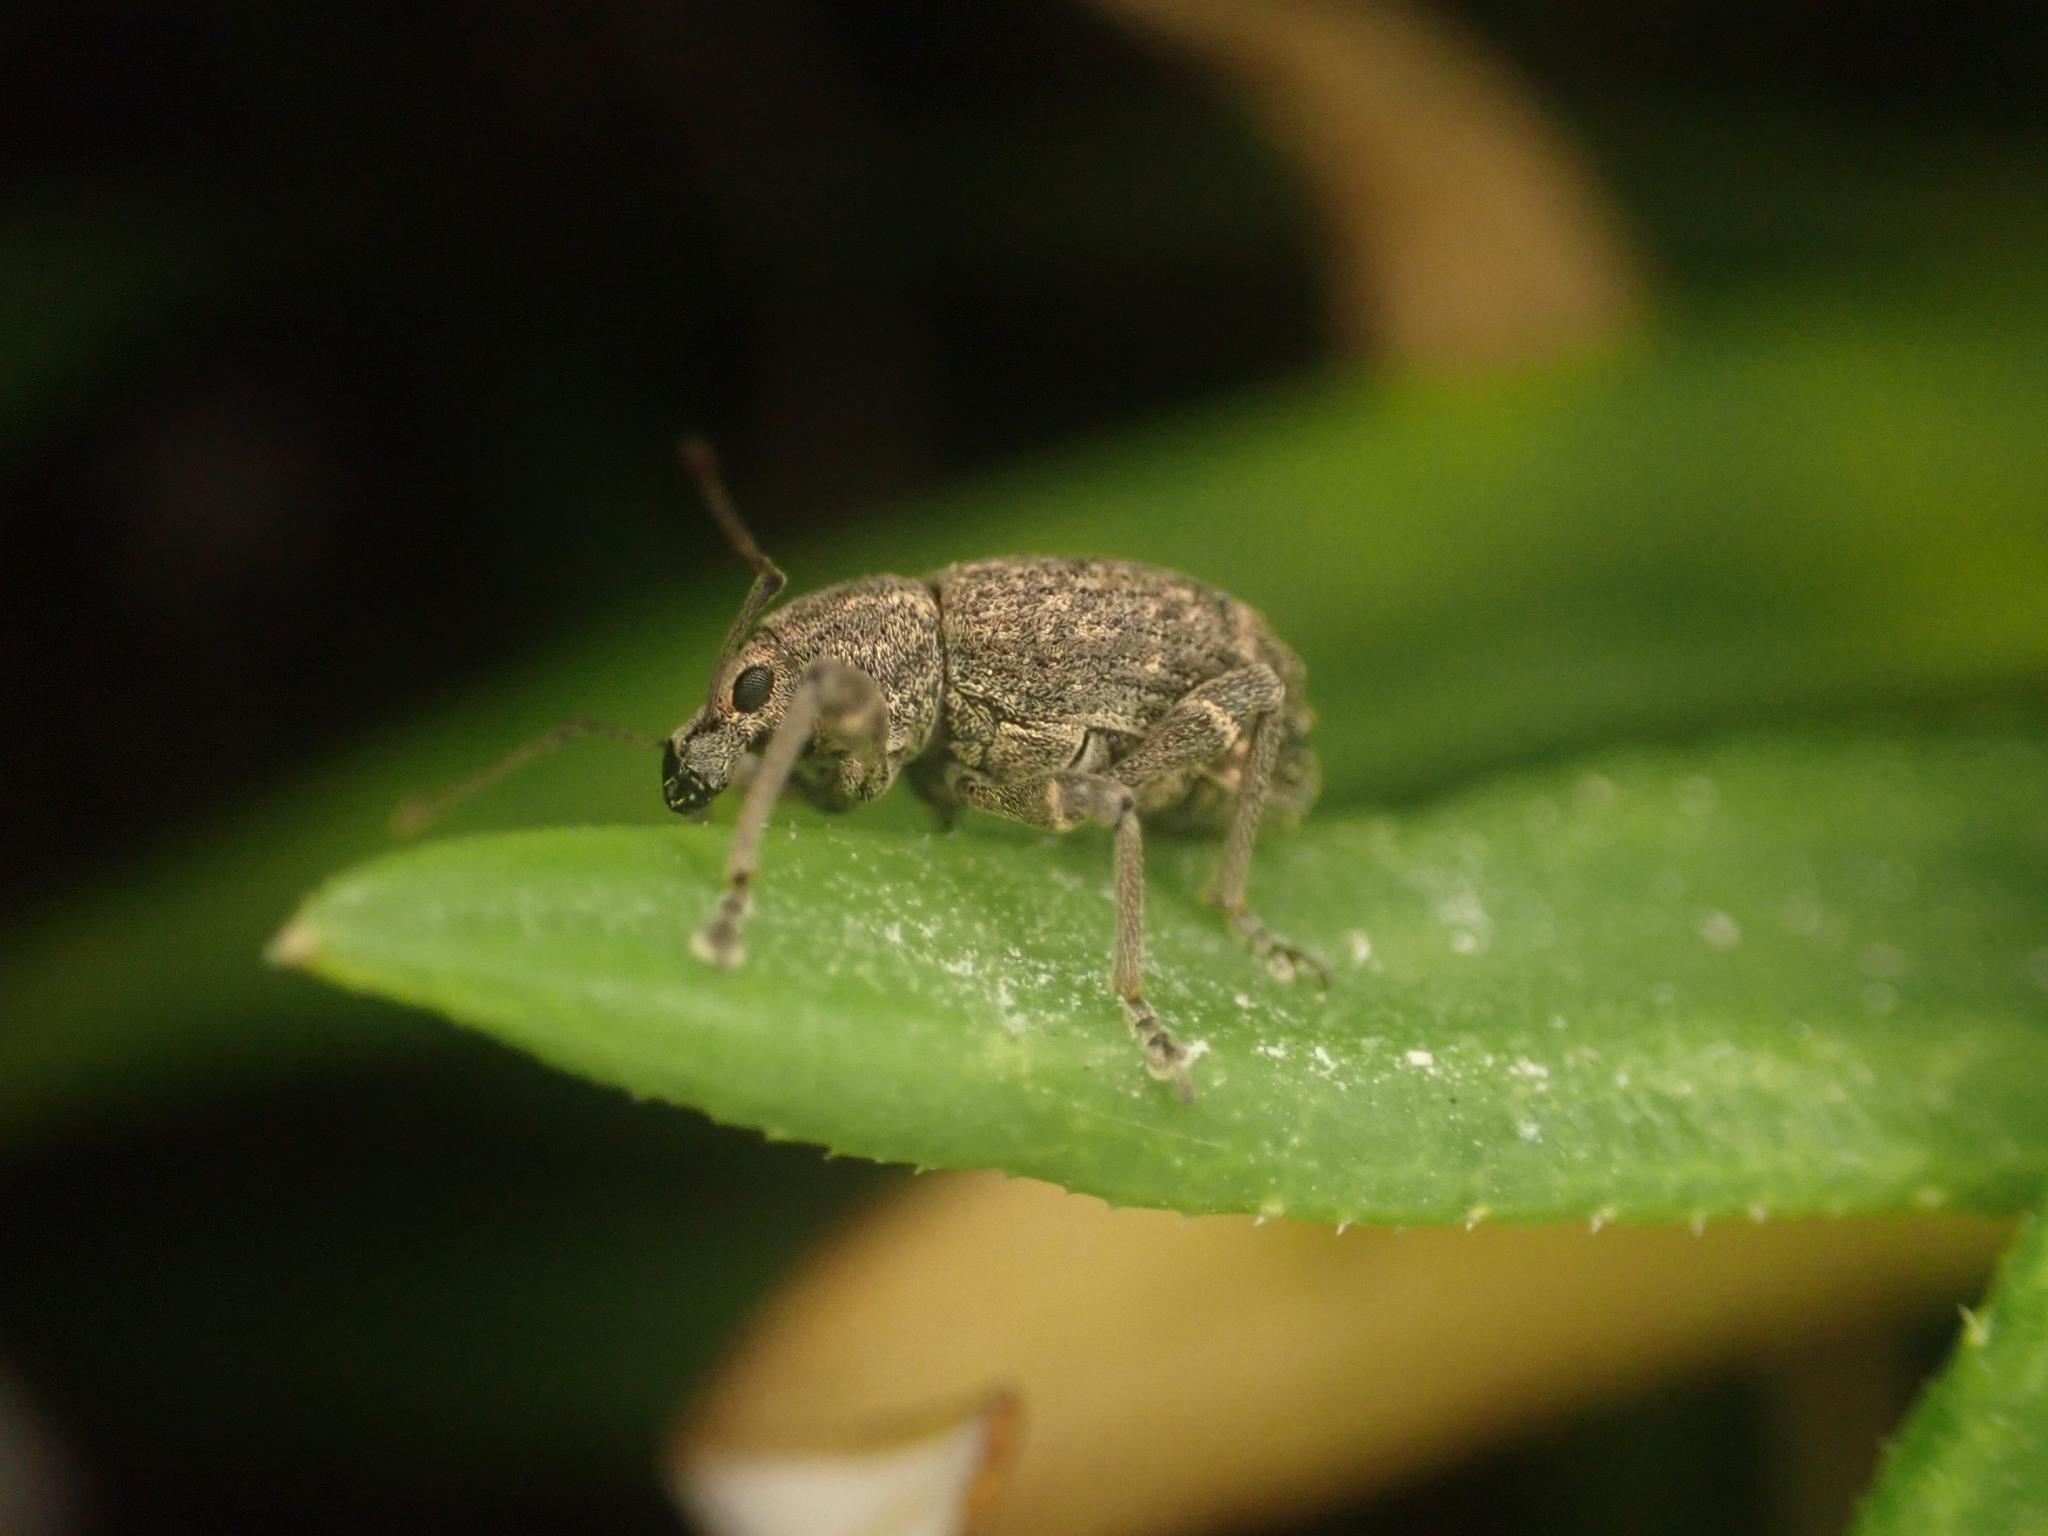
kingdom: Animalia
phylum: Arthropoda
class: Insecta
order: Coleoptera
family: Curculionidae
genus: Phlyctinus
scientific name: Phlyctinus callosus
